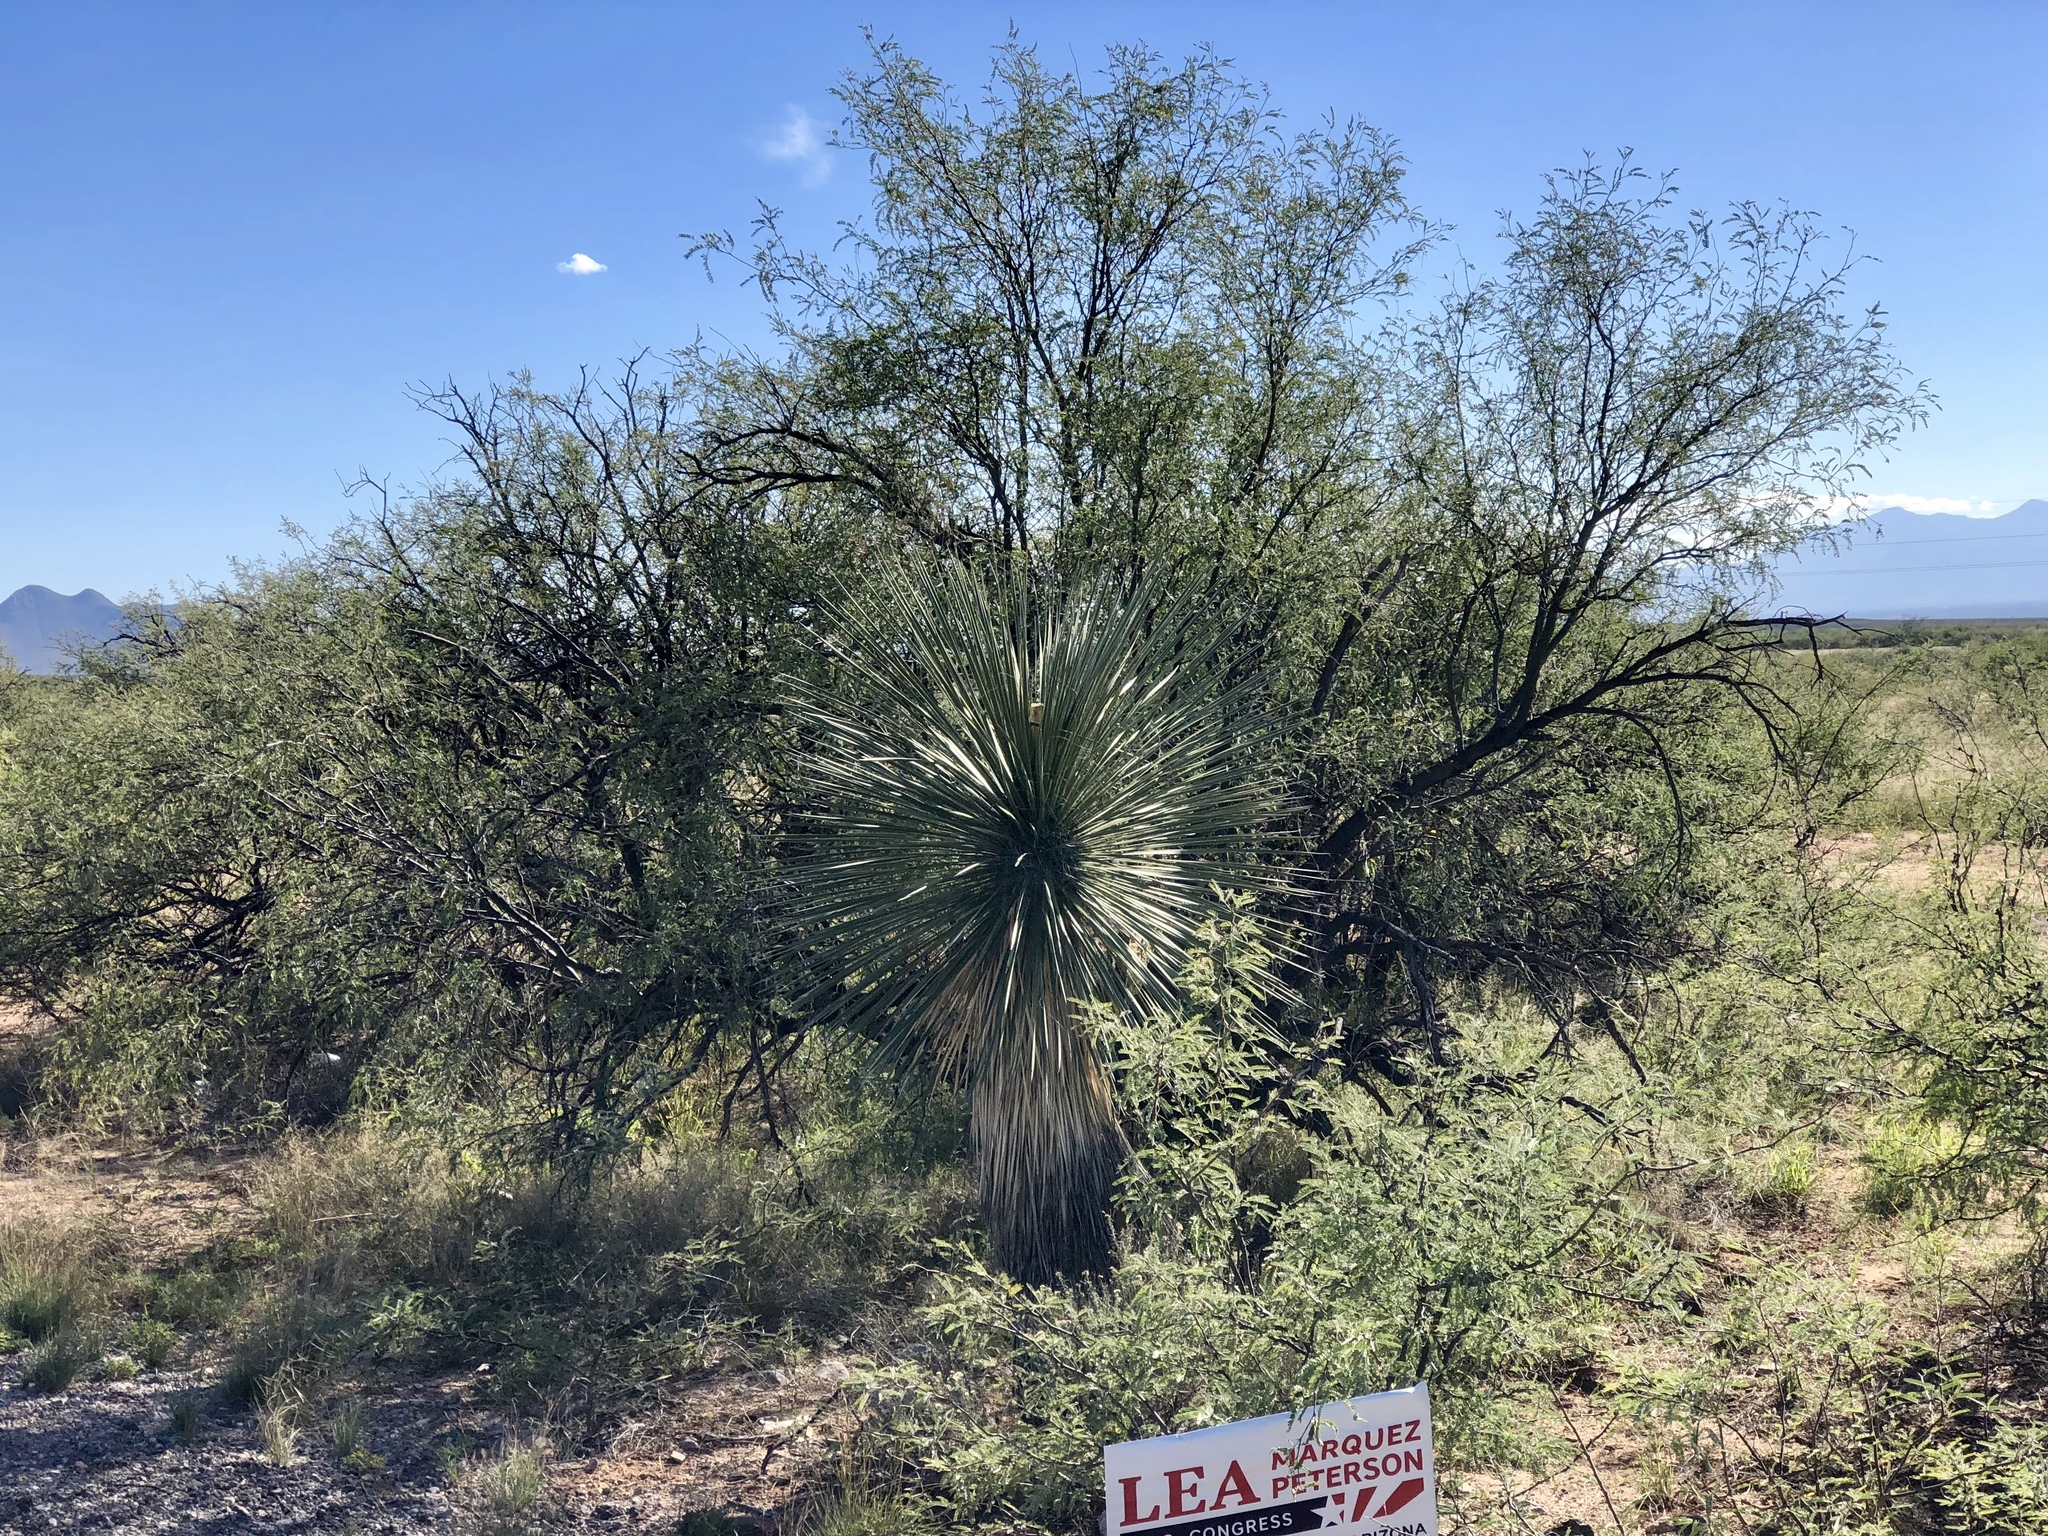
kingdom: Plantae
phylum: Tracheophyta
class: Liliopsida
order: Asparagales
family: Asparagaceae
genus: Yucca
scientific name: Yucca elata
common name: Palmella
